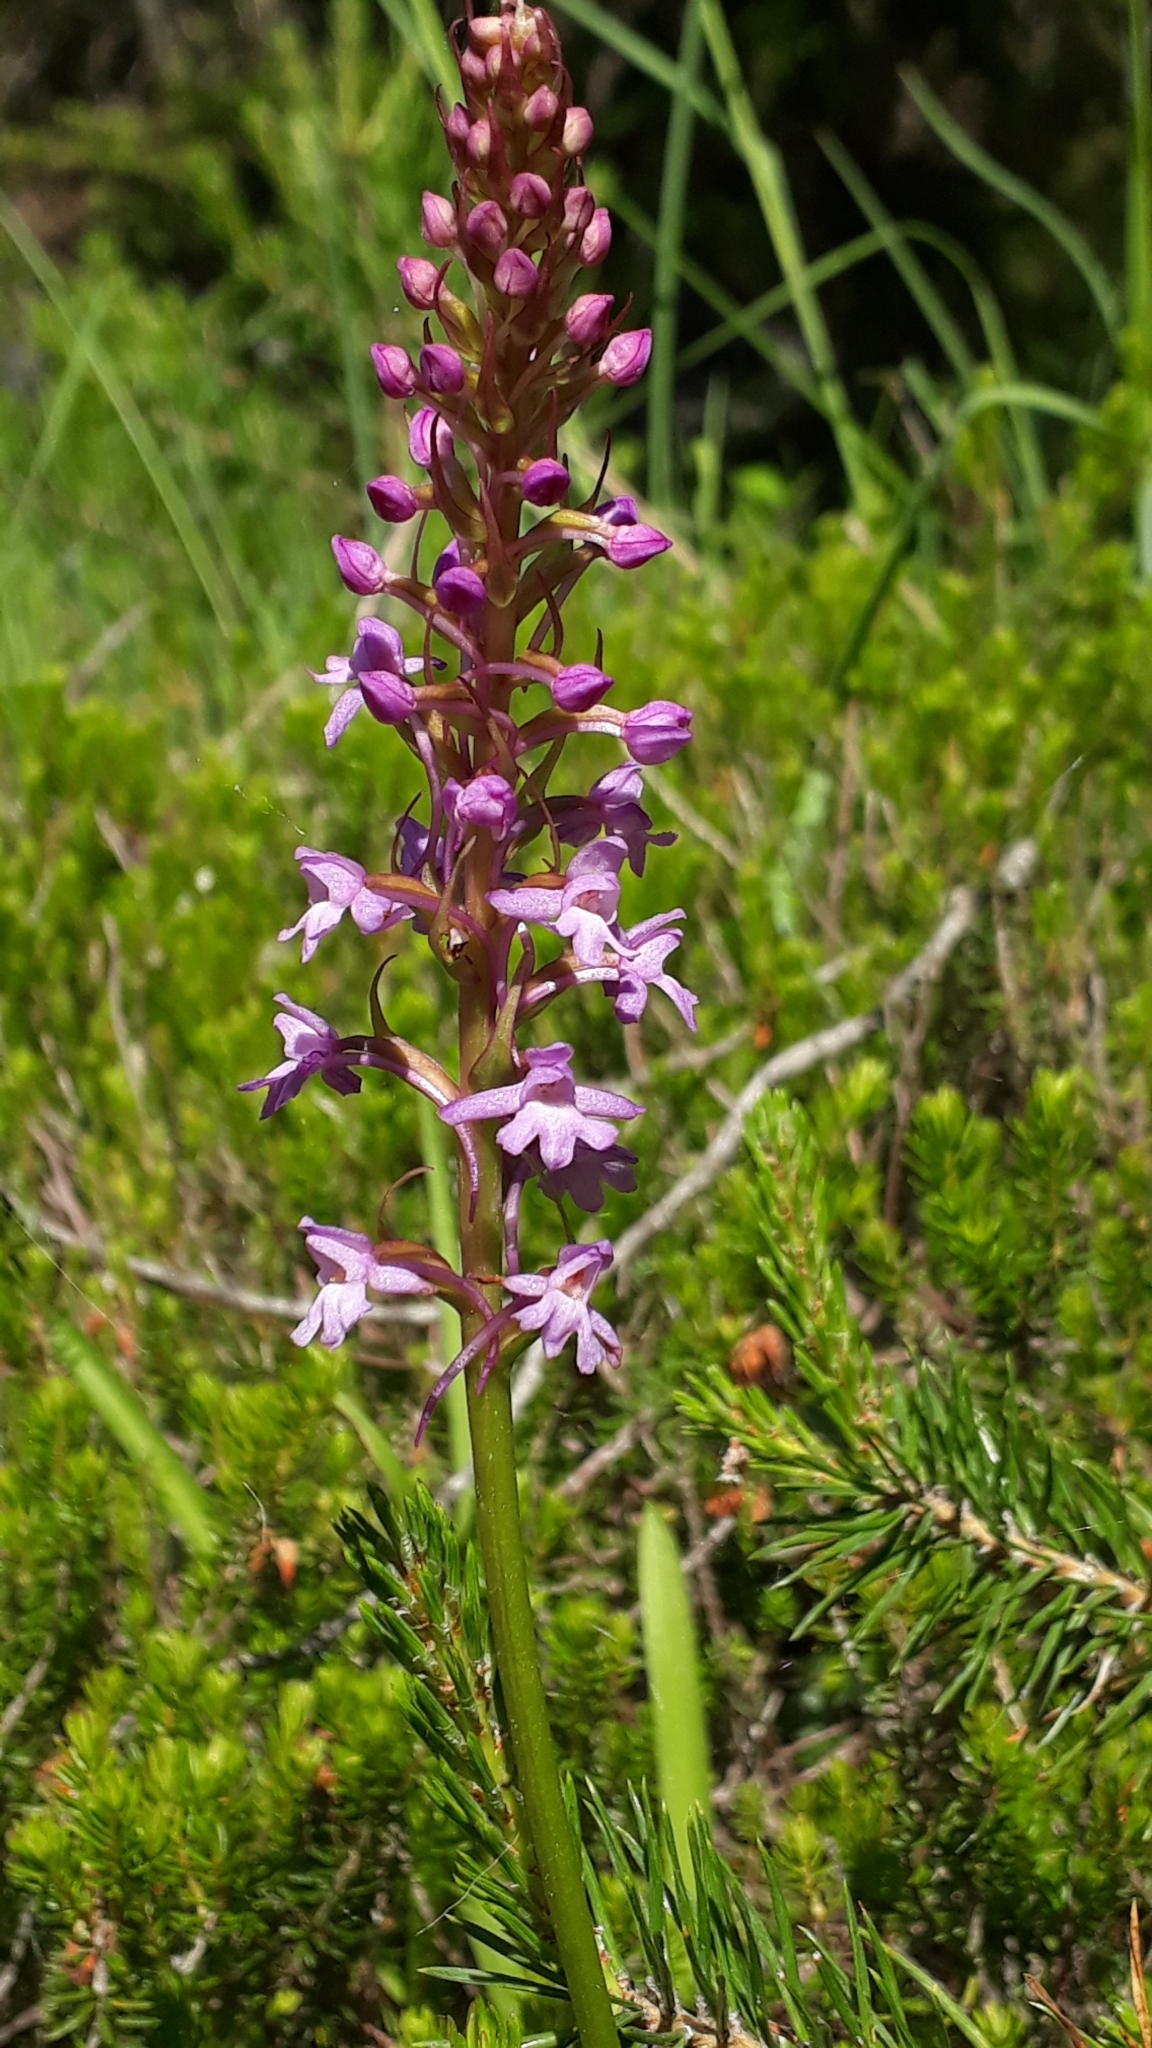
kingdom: Plantae
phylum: Tracheophyta
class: Liliopsida
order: Asparagales
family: Orchidaceae
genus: Gymnadenia
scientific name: Gymnadenia conopsea
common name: Fragrant orchid
